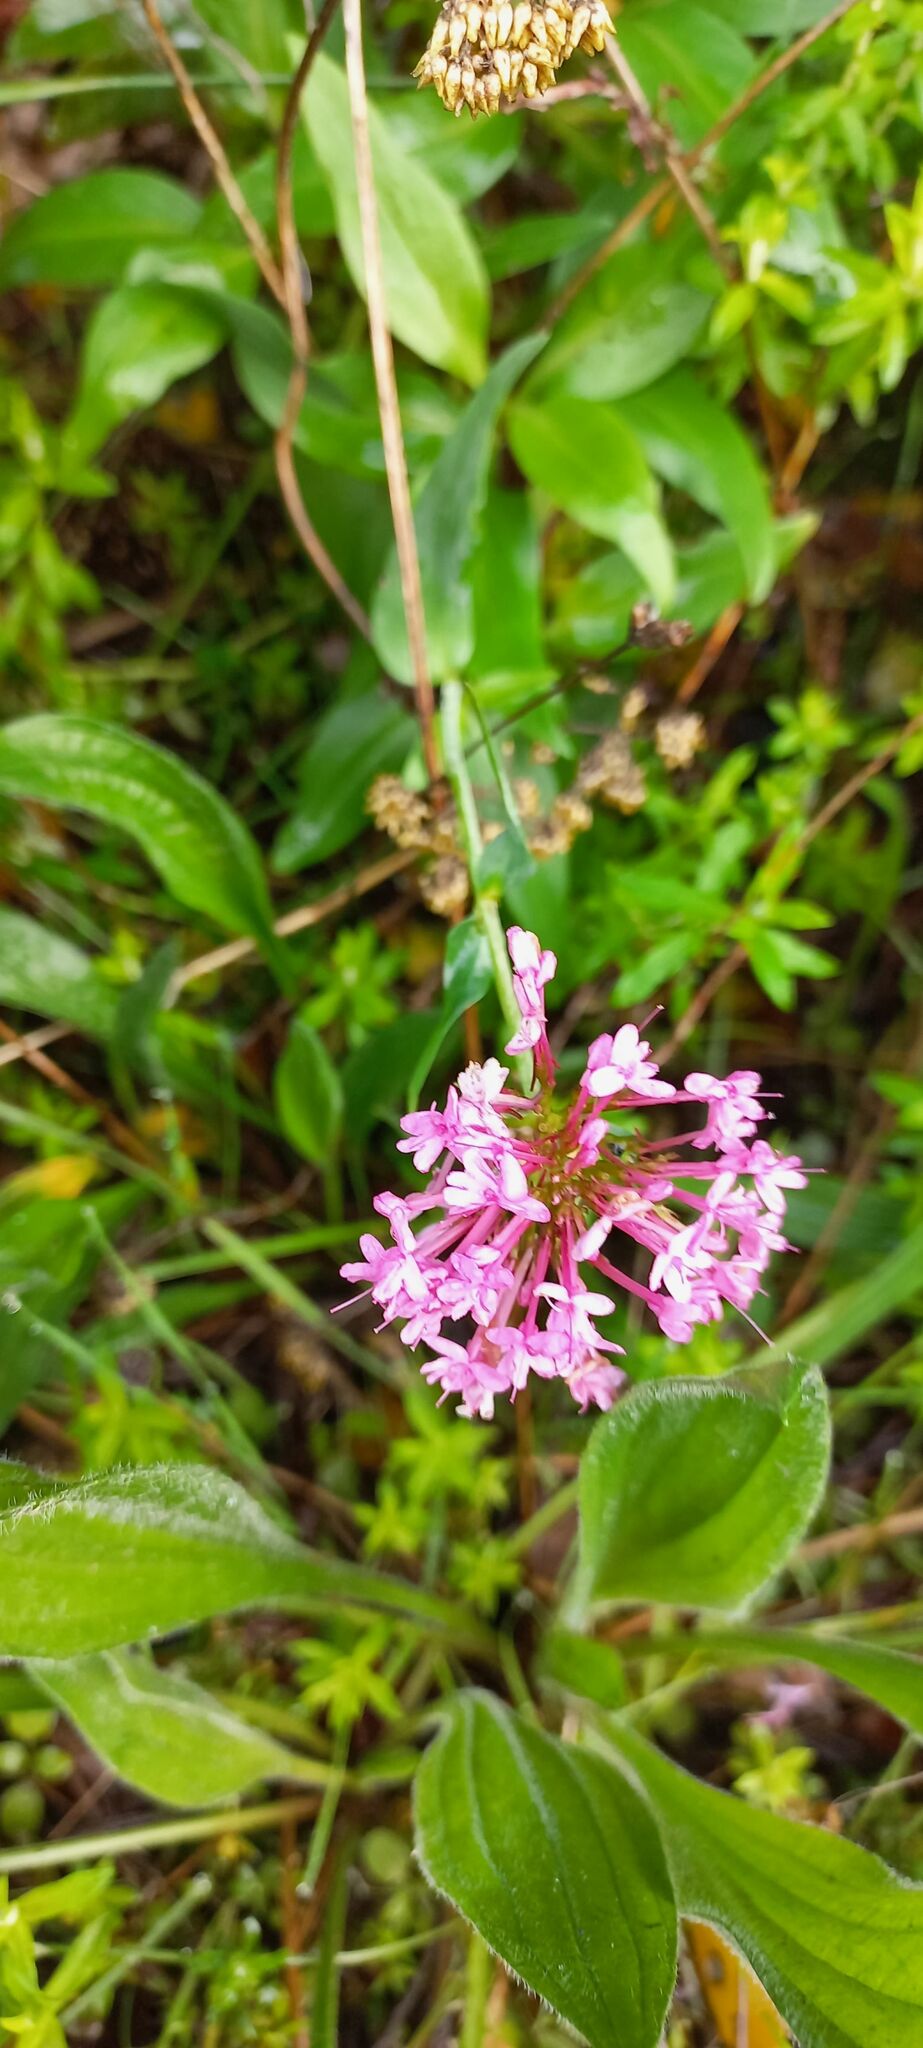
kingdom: Plantae
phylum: Tracheophyta
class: Magnoliopsida
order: Dipsacales
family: Caprifoliaceae
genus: Centranthus
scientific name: Centranthus ruber
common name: Red valerian
